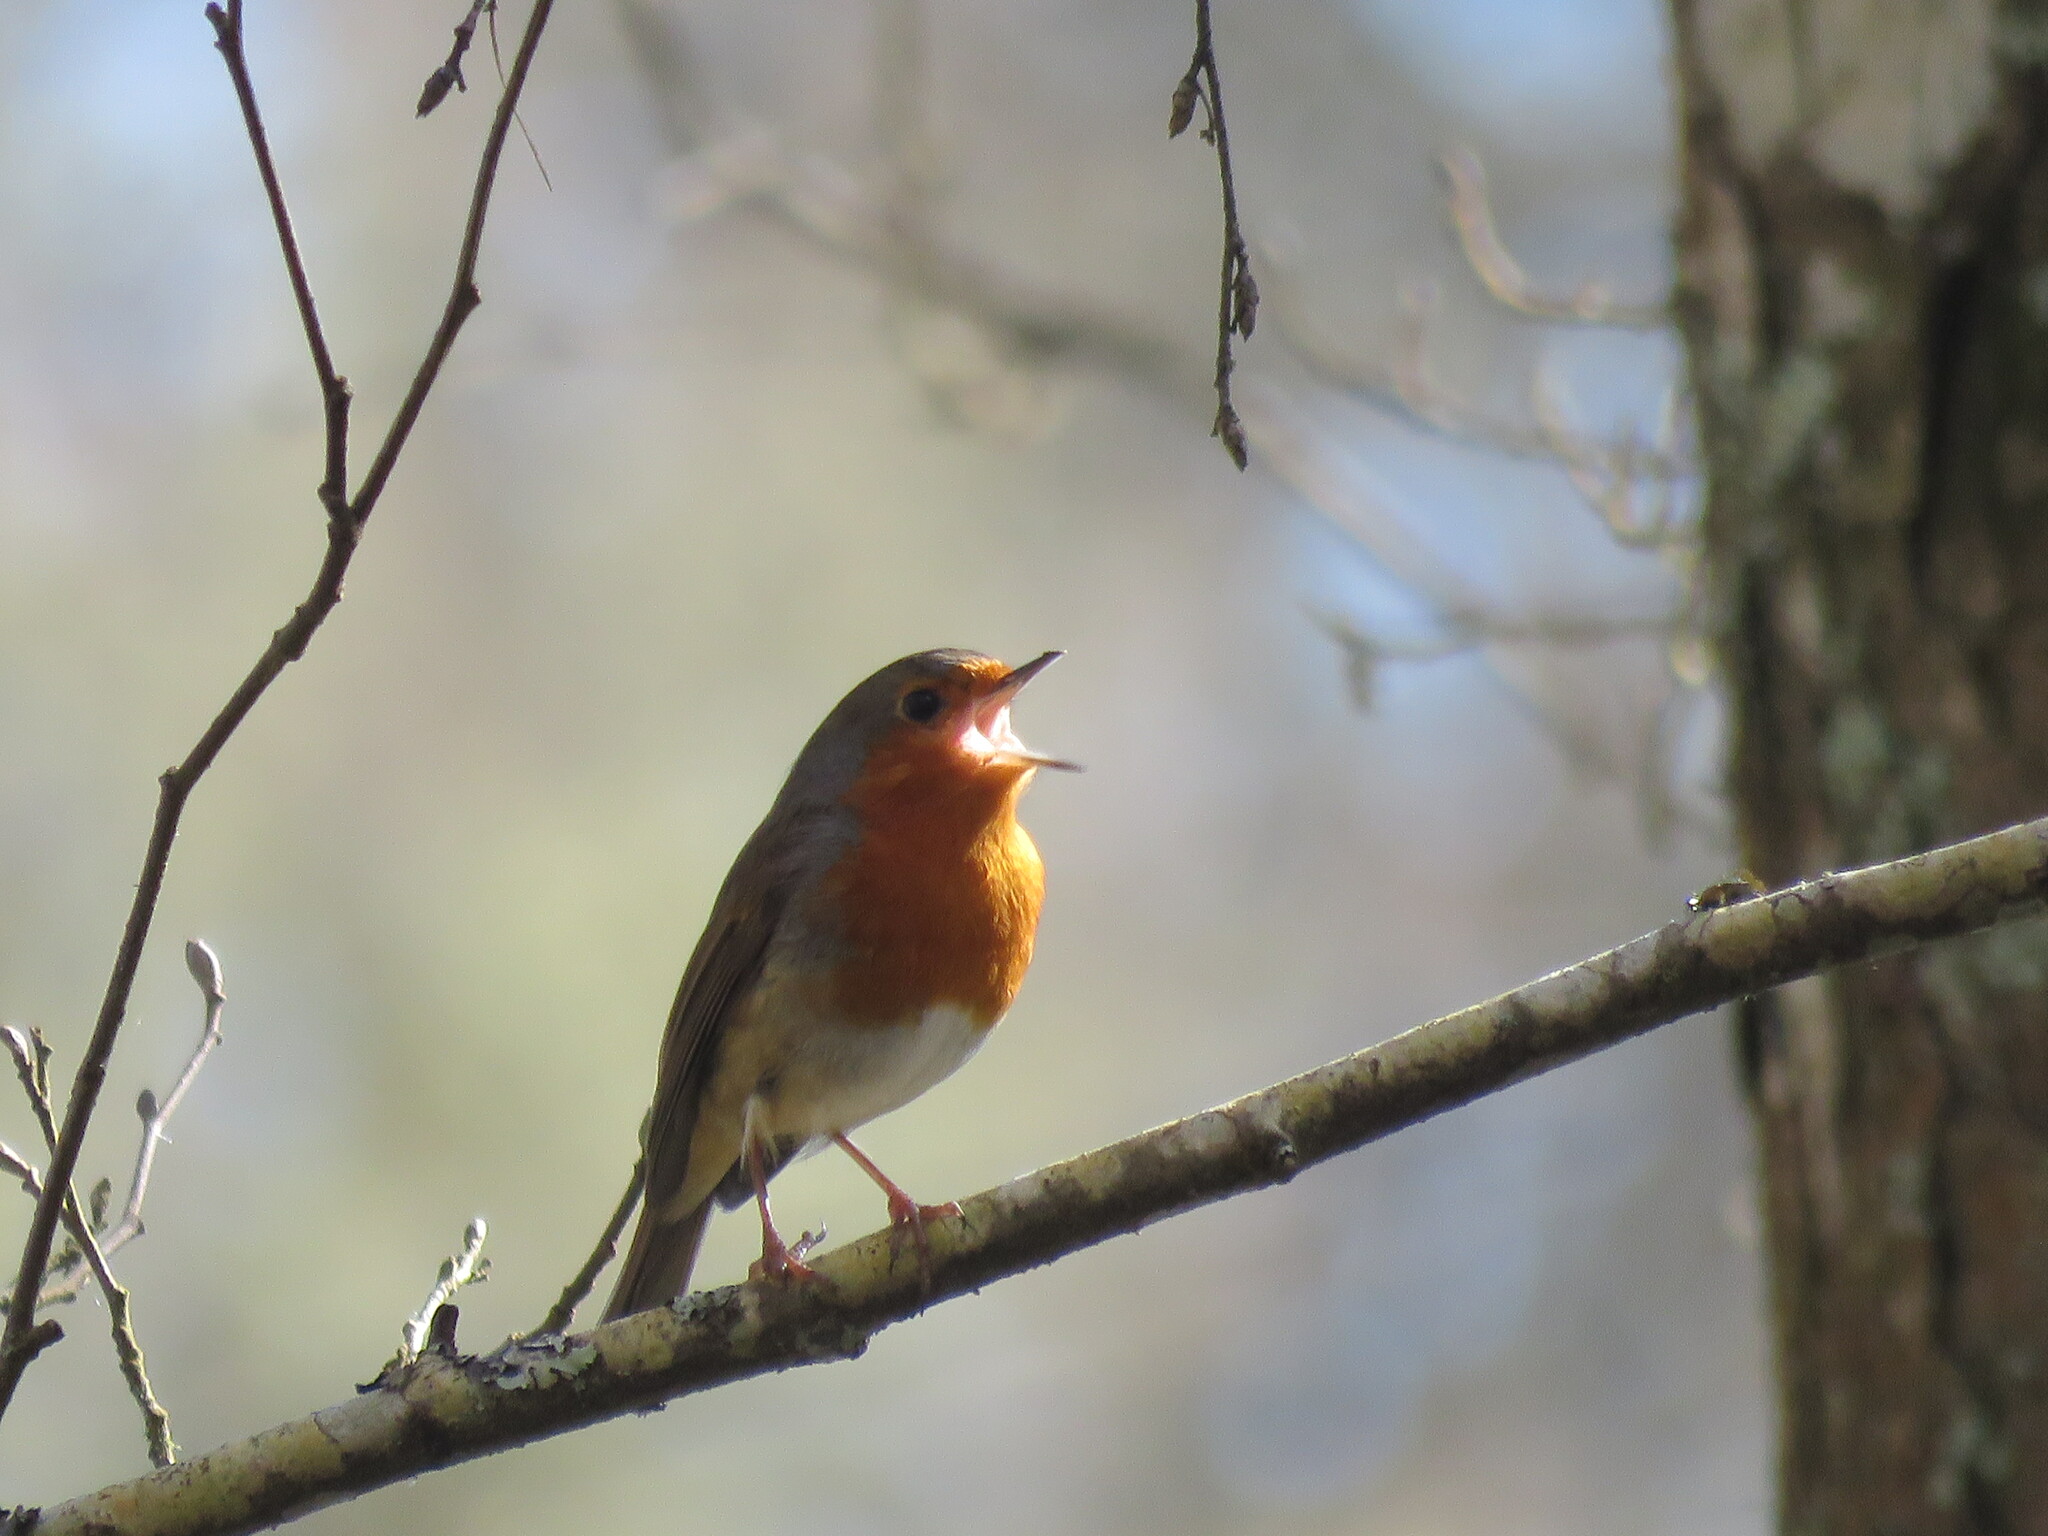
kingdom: Animalia
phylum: Chordata
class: Aves
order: Passeriformes
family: Muscicapidae
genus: Erithacus
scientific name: Erithacus rubecula
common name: European robin
